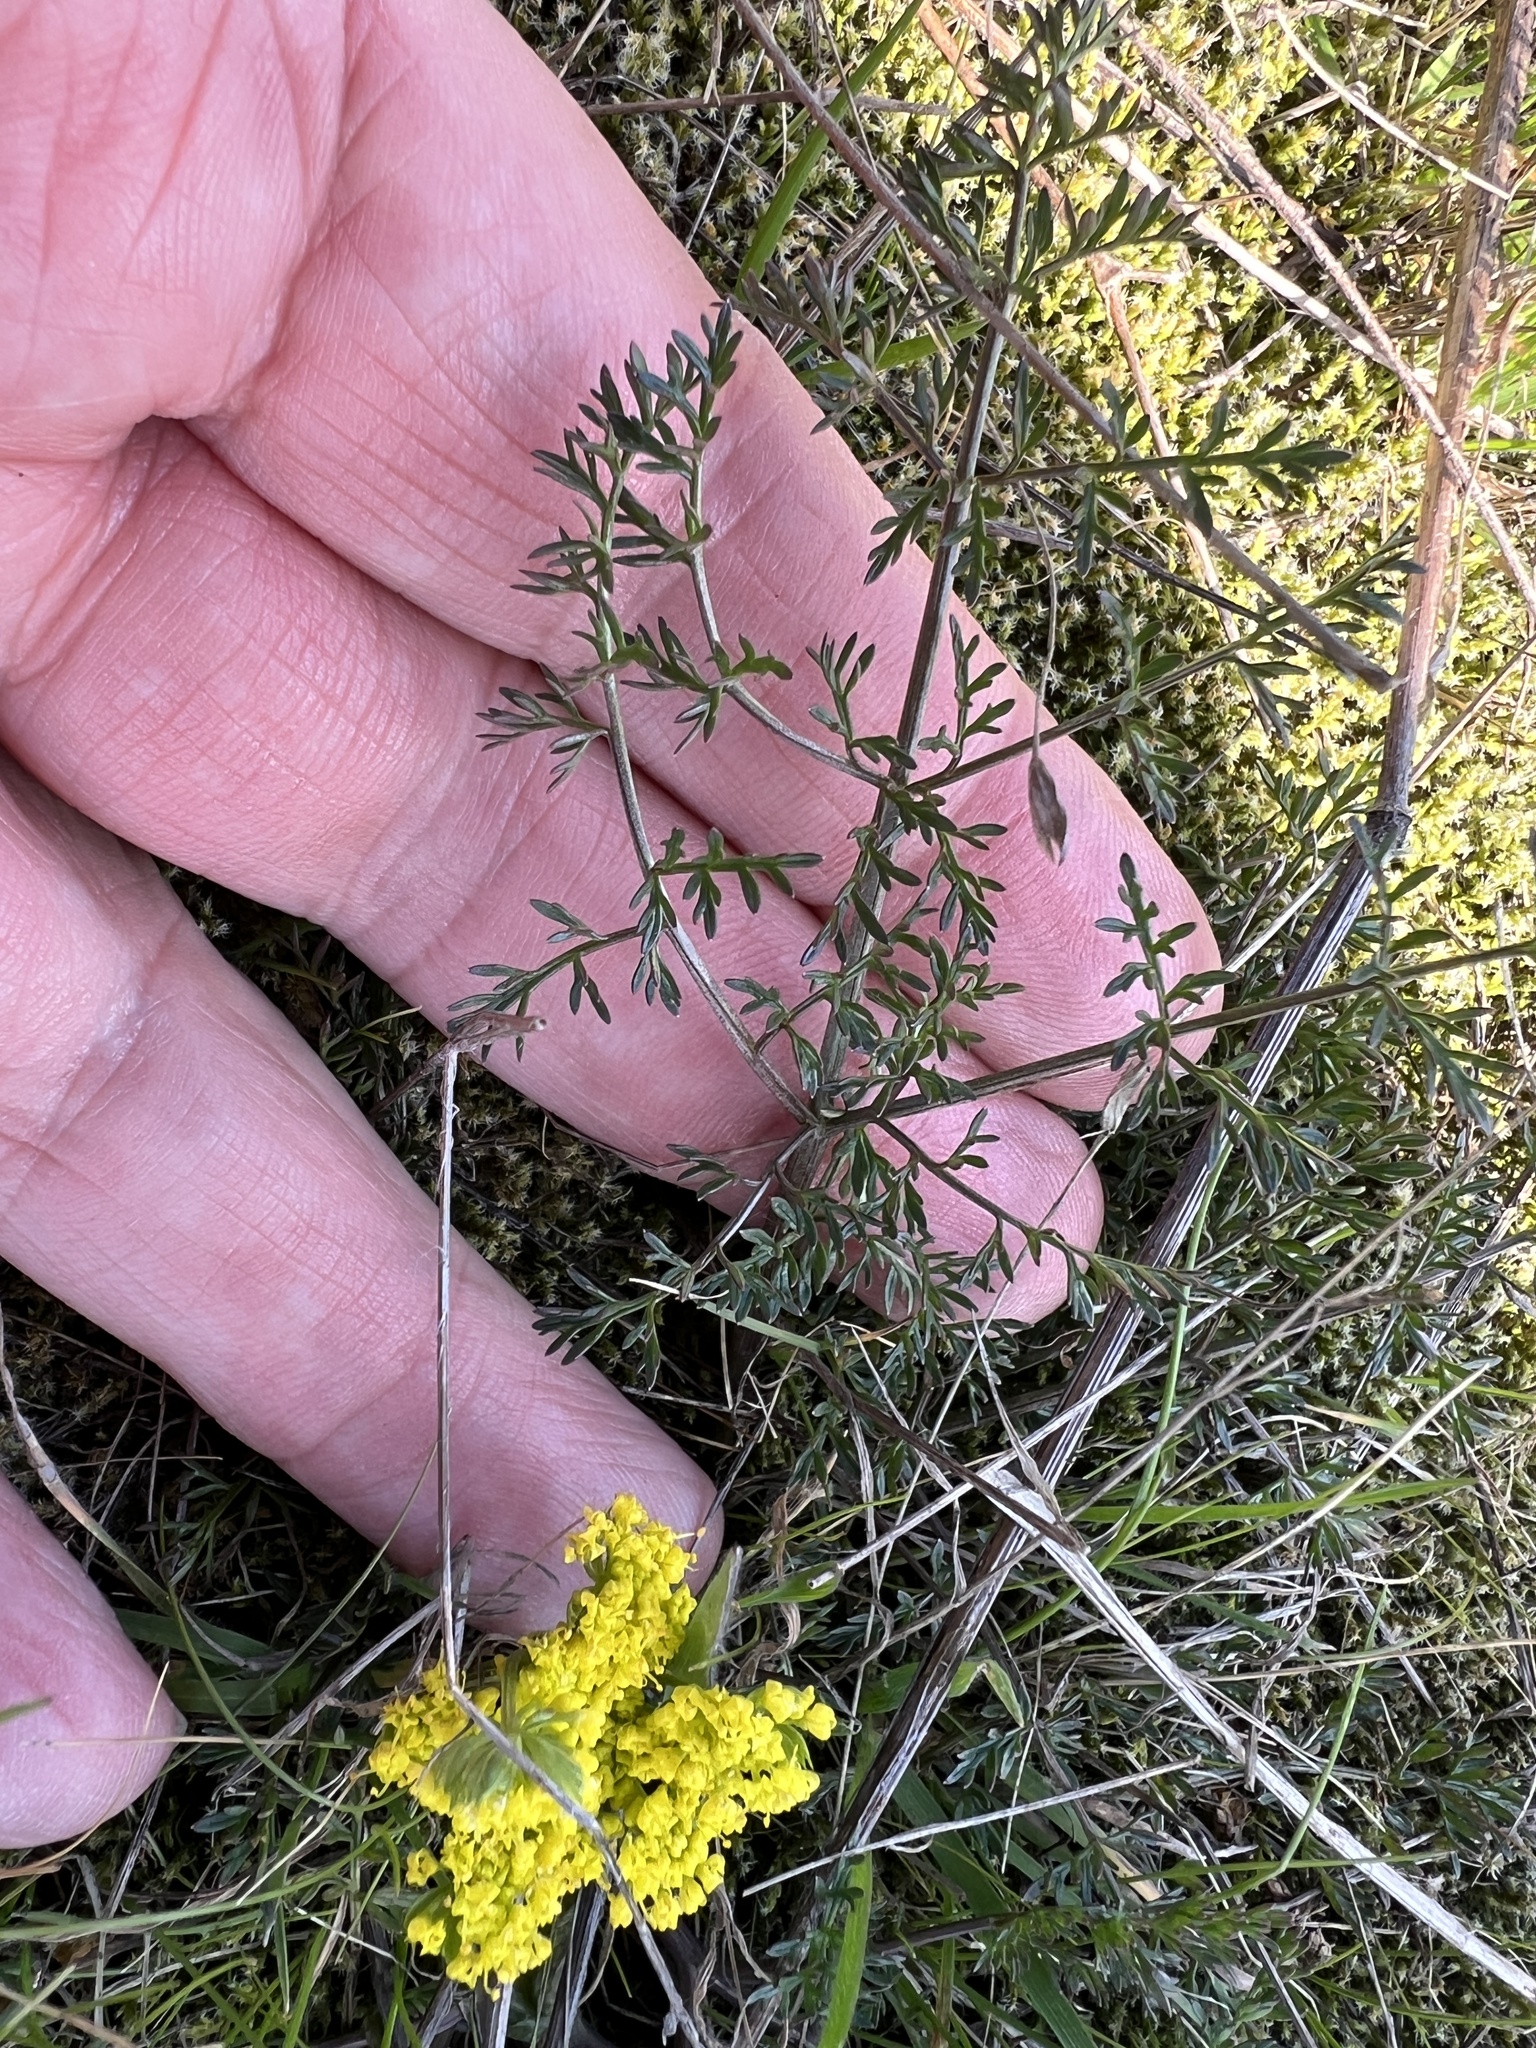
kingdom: Plantae
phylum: Tracheophyta
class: Magnoliopsida
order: Apiales
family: Apiaceae
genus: Lomatium
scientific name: Lomatium utriculatum
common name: Fine-leaf desert-parsley
